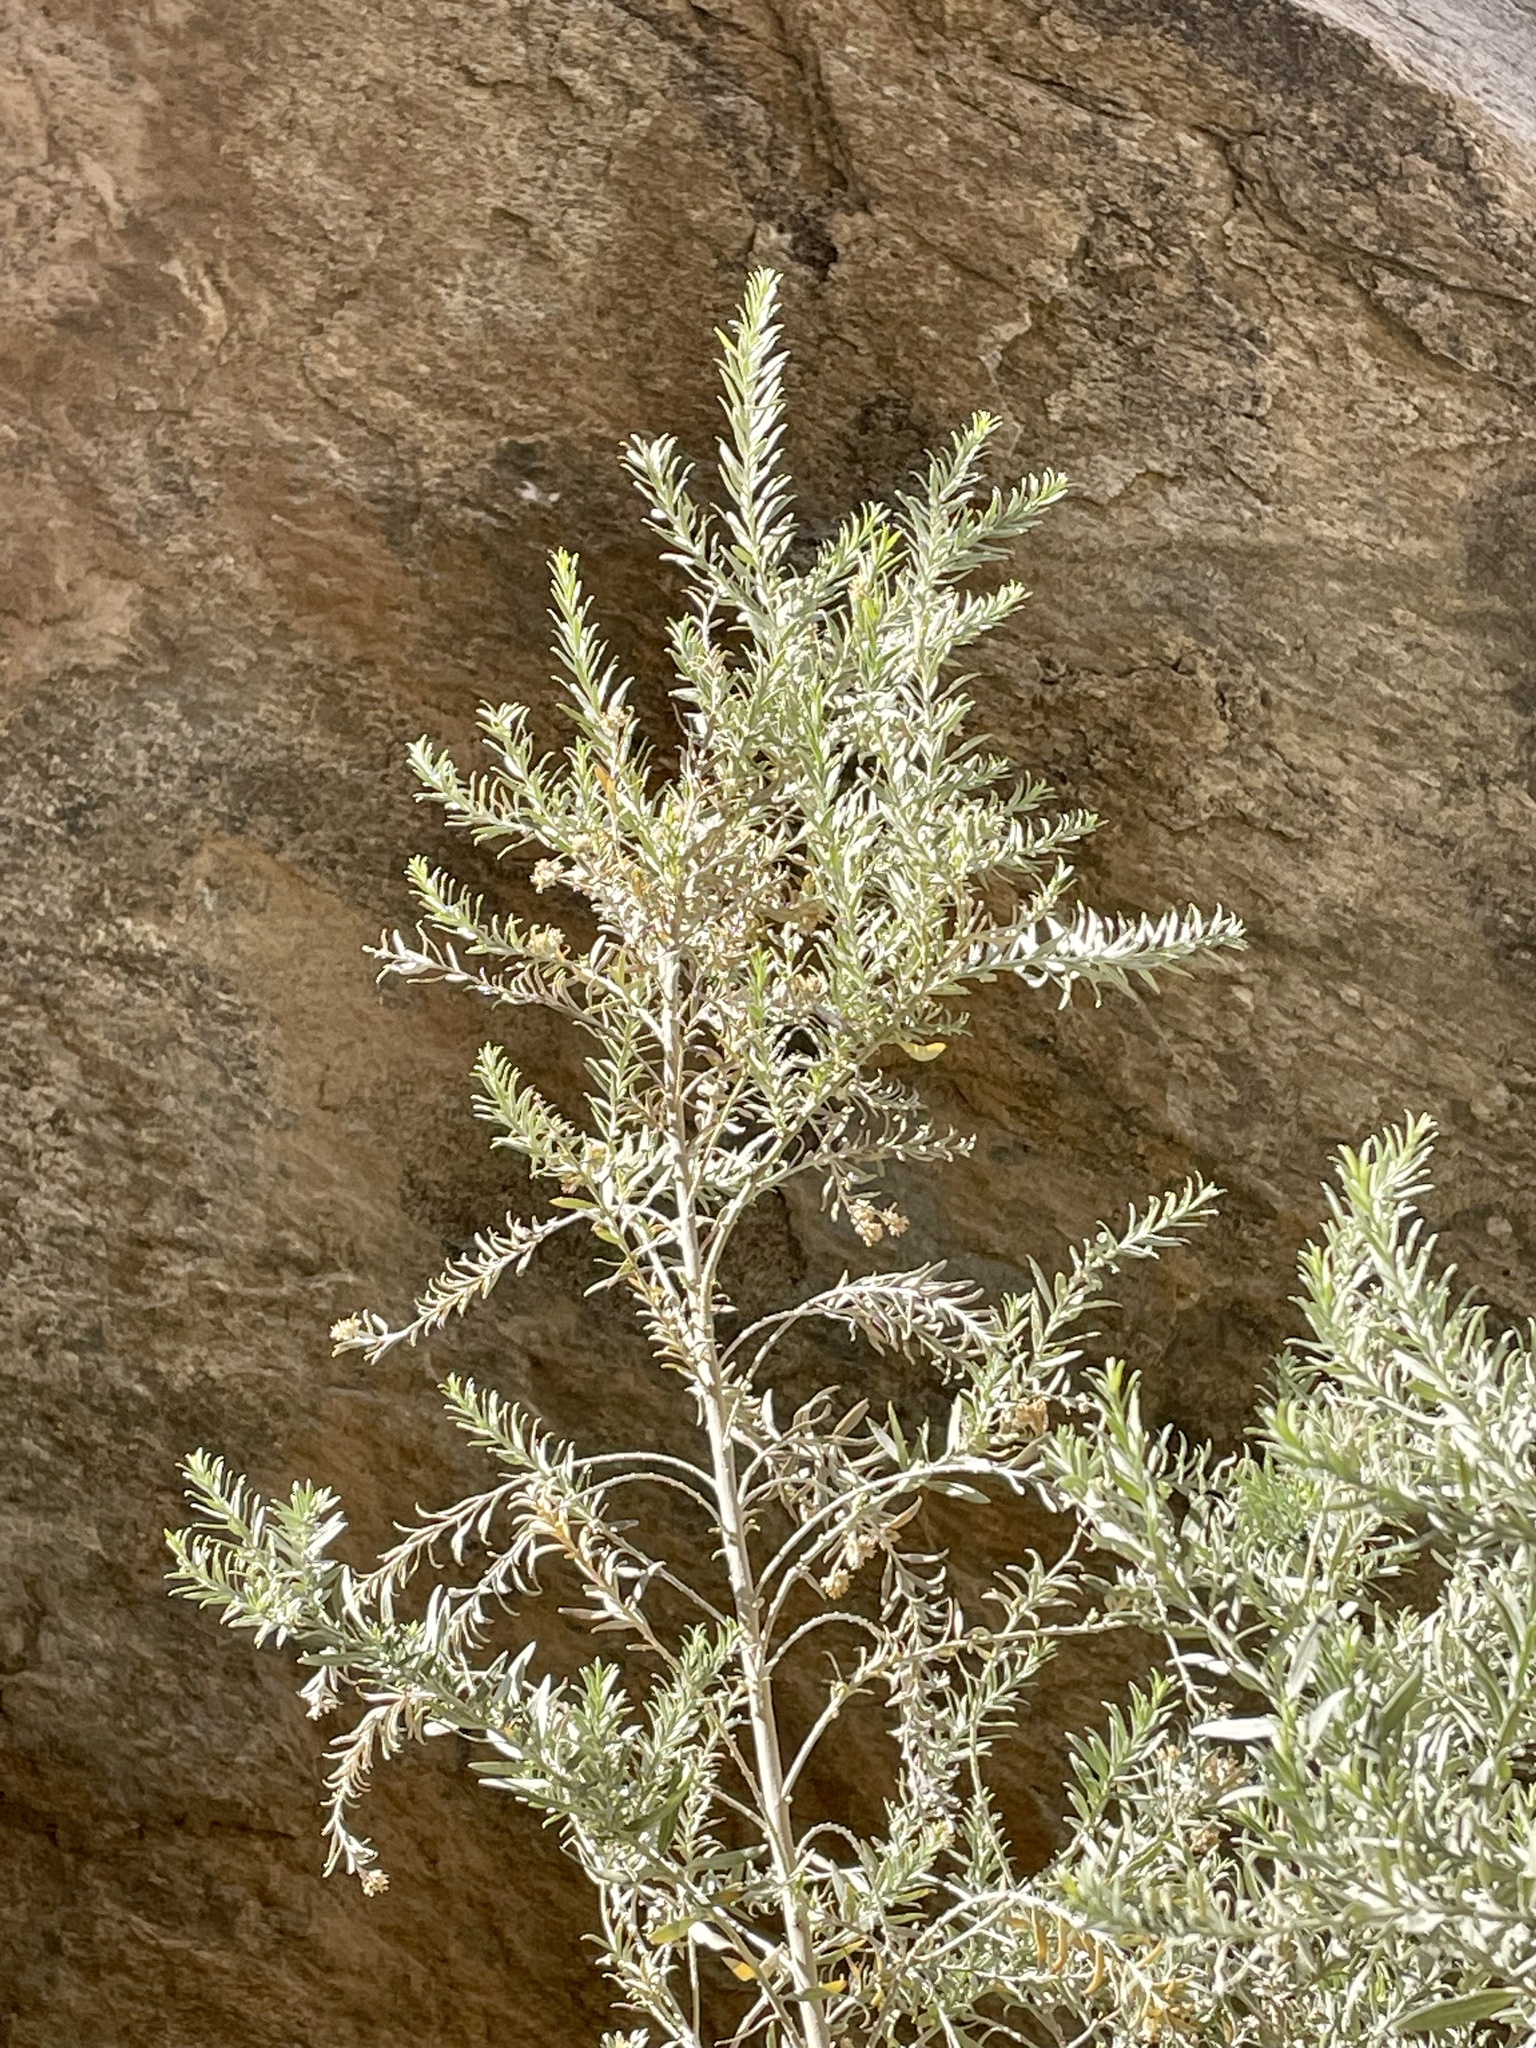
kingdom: Plantae
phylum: Tracheophyta
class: Magnoliopsida
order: Asterales
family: Asteraceae
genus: Pluchea
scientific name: Pluchea sericea
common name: Arrow-weed
